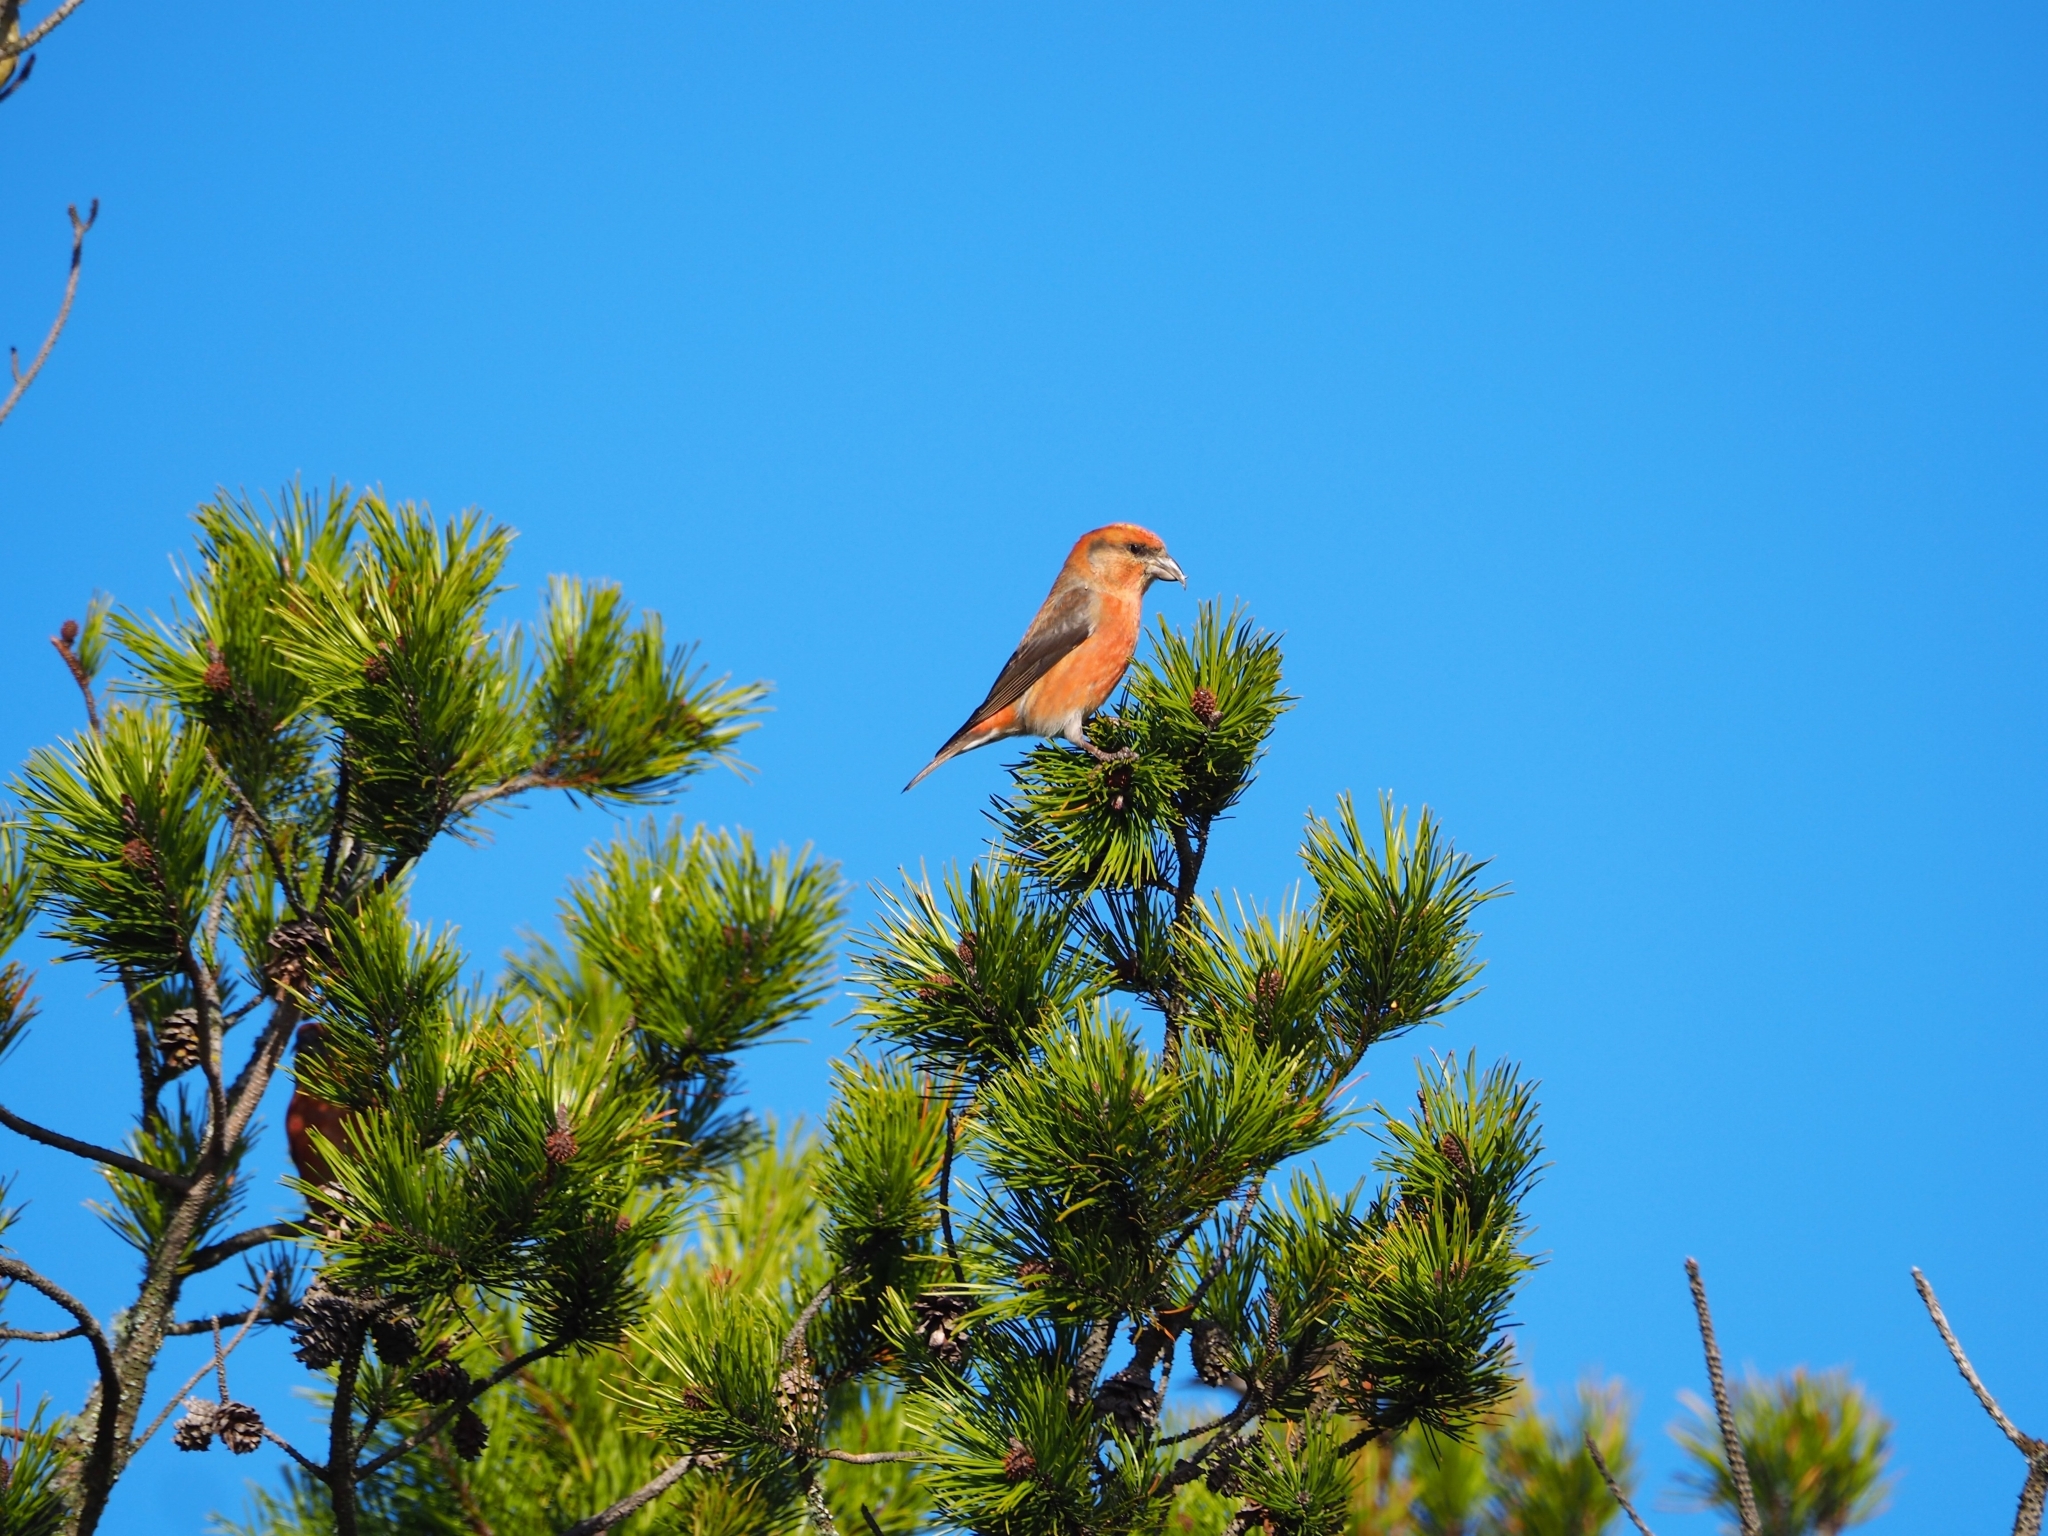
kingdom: Animalia
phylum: Chordata
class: Aves
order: Passeriformes
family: Fringillidae
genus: Loxia
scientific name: Loxia curvirostra
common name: Red crossbill
